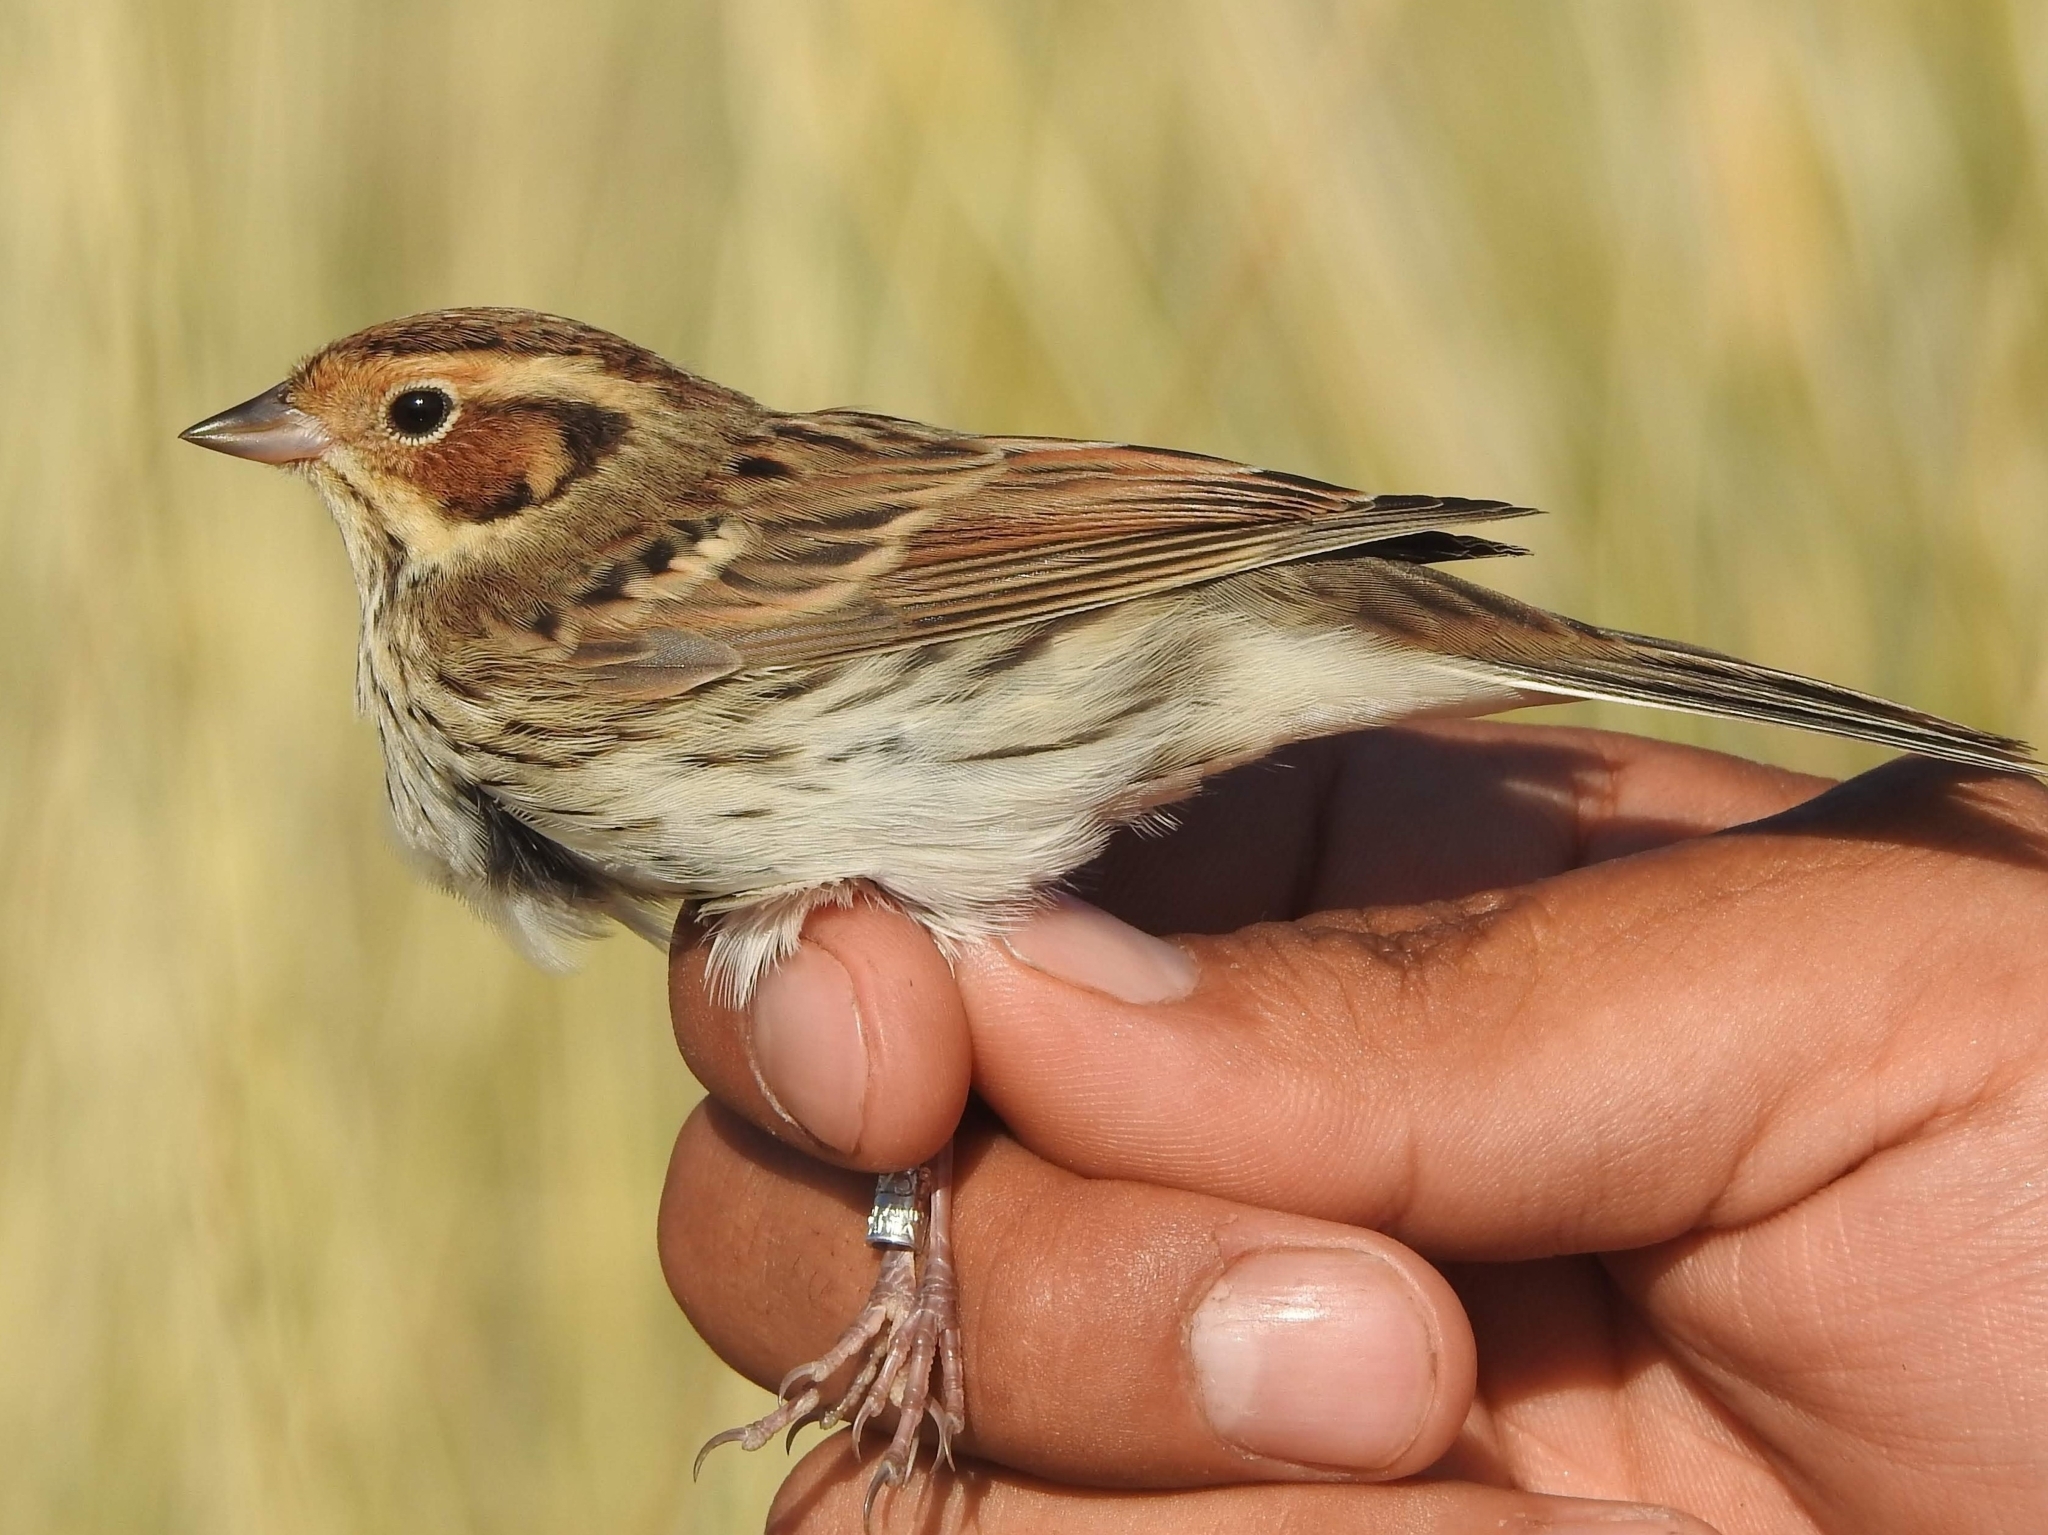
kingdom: Animalia
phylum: Chordata
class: Aves
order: Passeriformes
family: Emberizidae
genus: Emberiza
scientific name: Emberiza pusilla
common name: Little bunting
